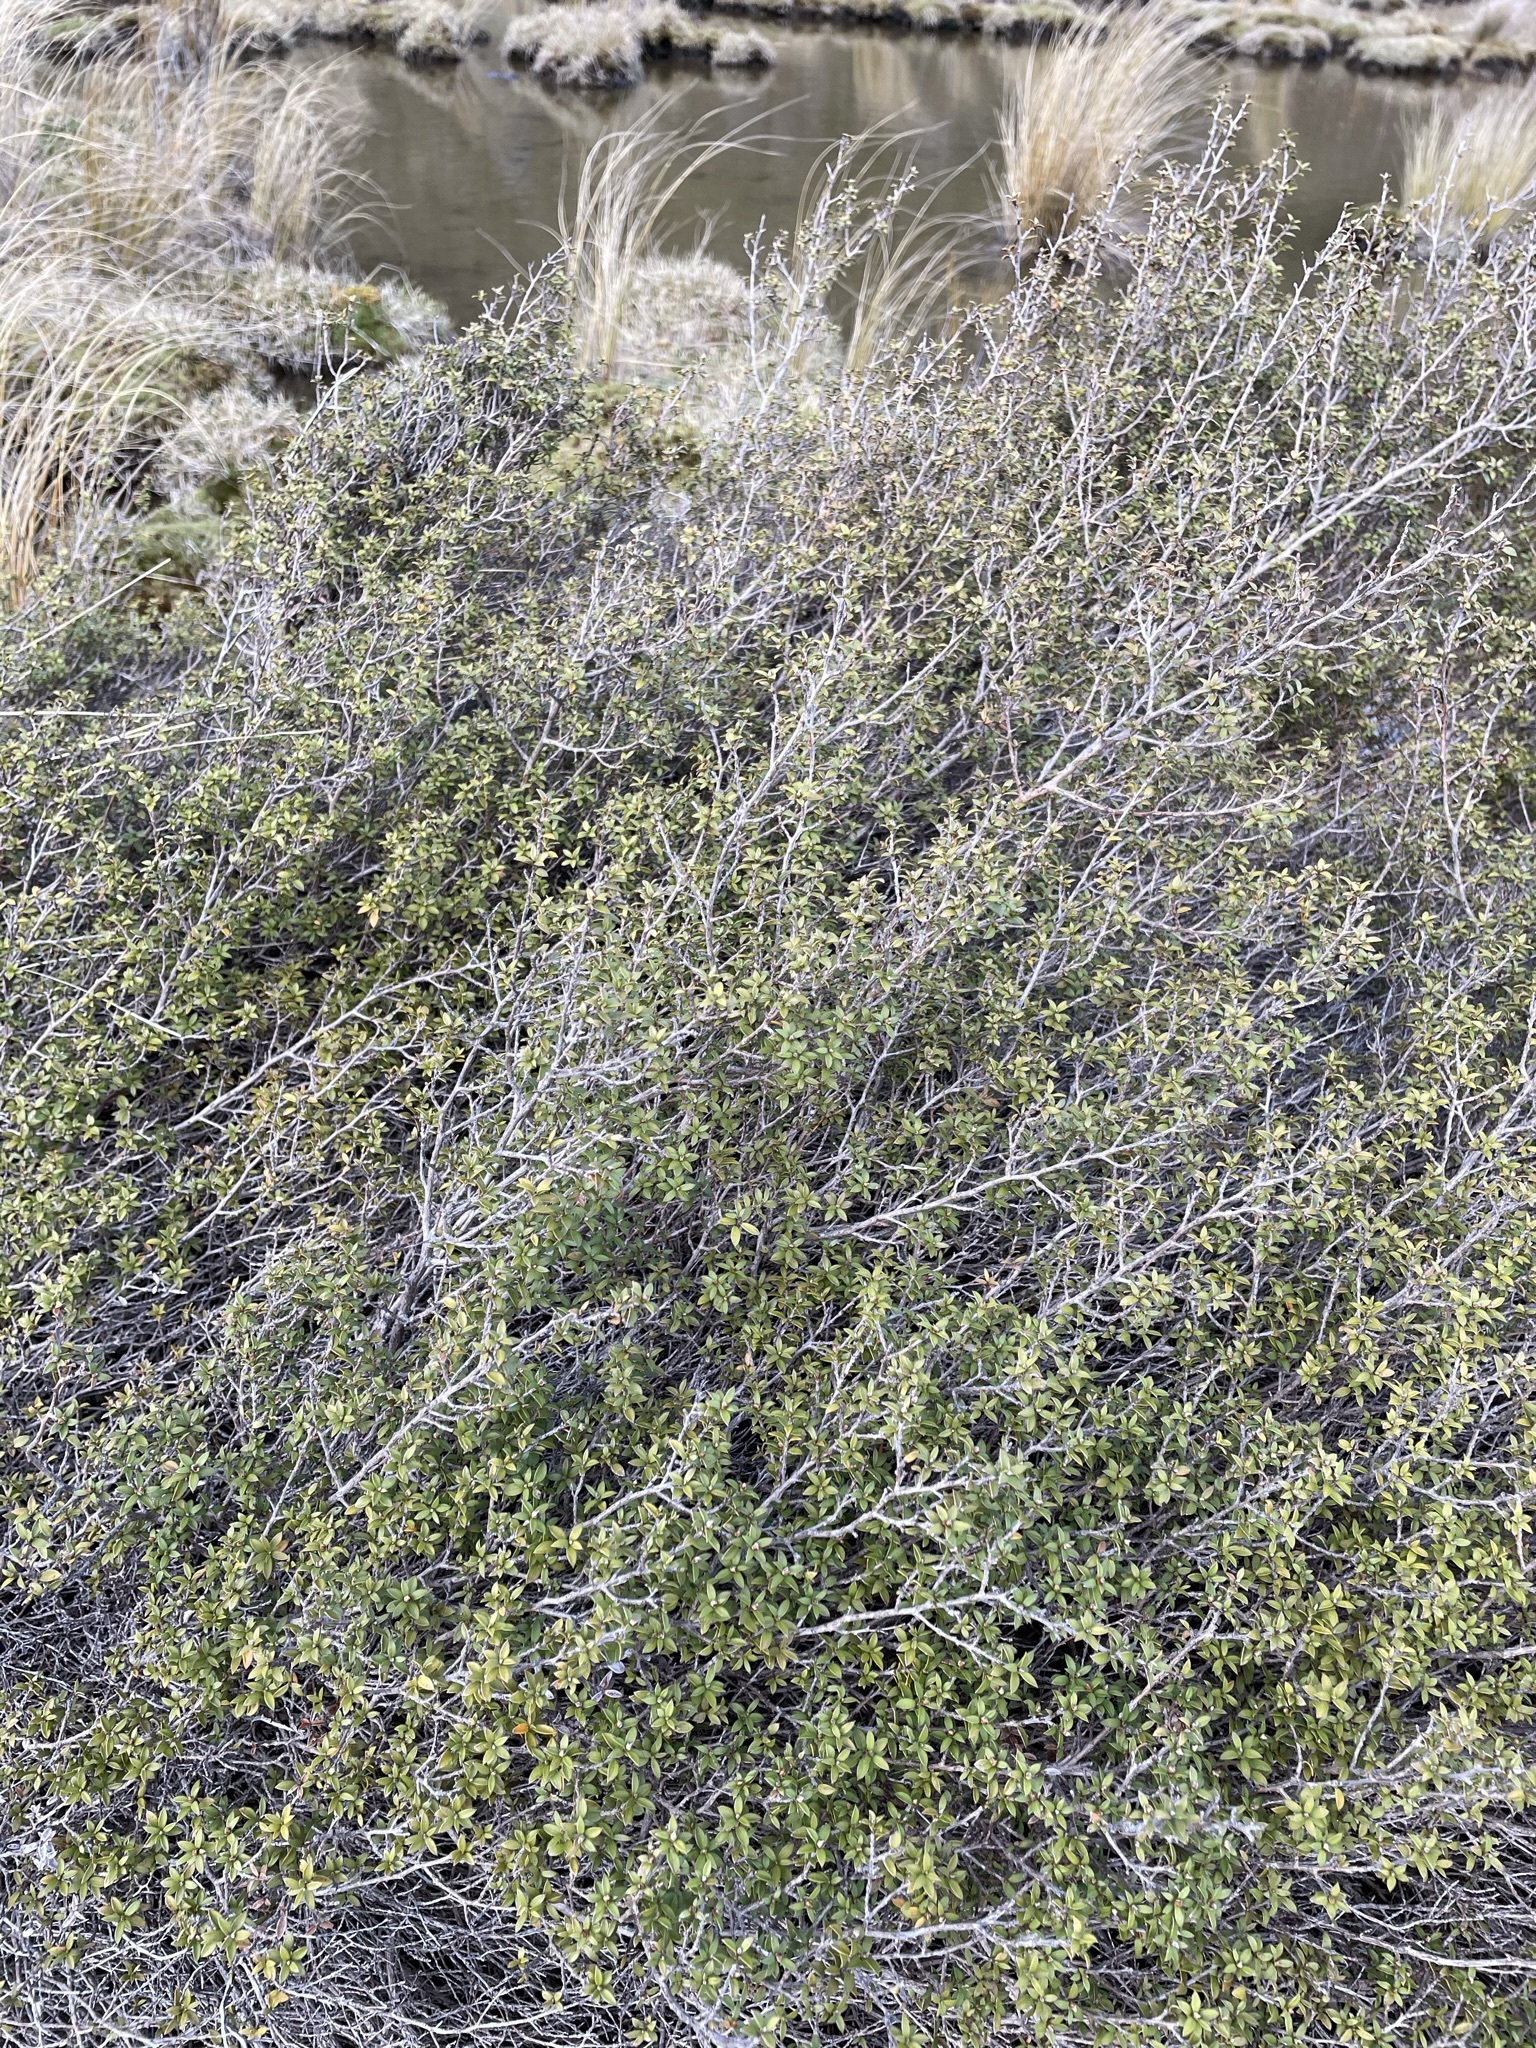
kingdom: Plantae
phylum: Tracheophyta
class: Magnoliopsida
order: Myrtales
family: Myrtaceae
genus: Leptospermum
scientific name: Leptospermum scoparium
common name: Broom tea-tree
